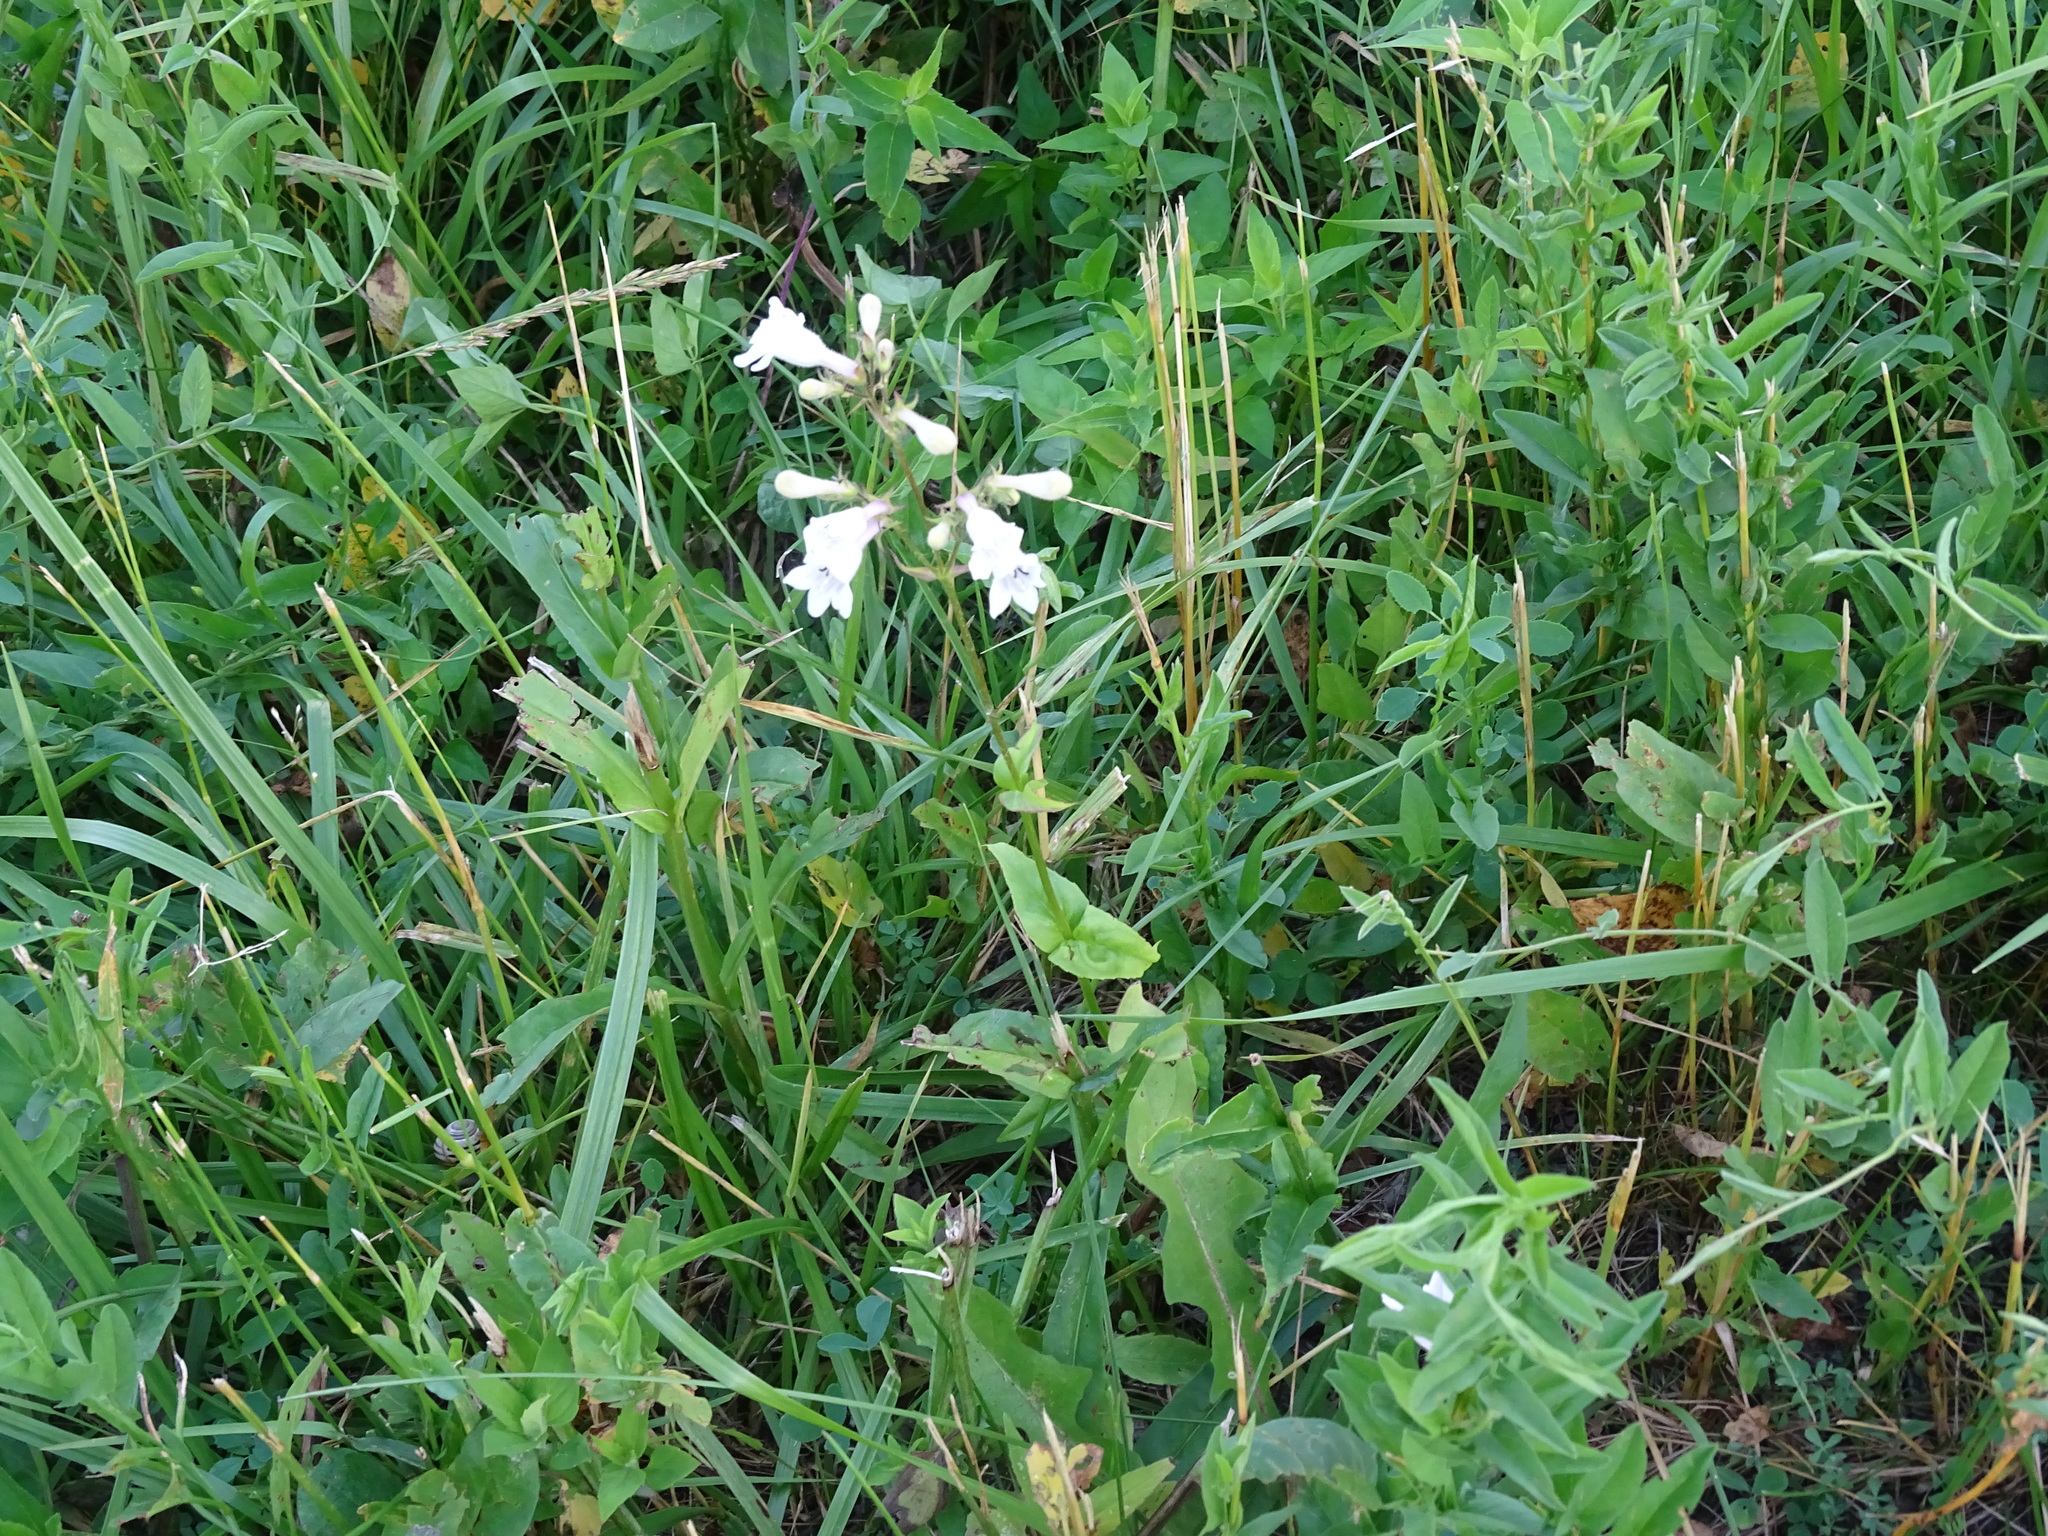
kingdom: Plantae
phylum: Tracheophyta
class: Magnoliopsida
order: Lamiales
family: Plantaginaceae
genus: Penstemon
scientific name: Penstemon digitalis
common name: Foxglove beardtongue
